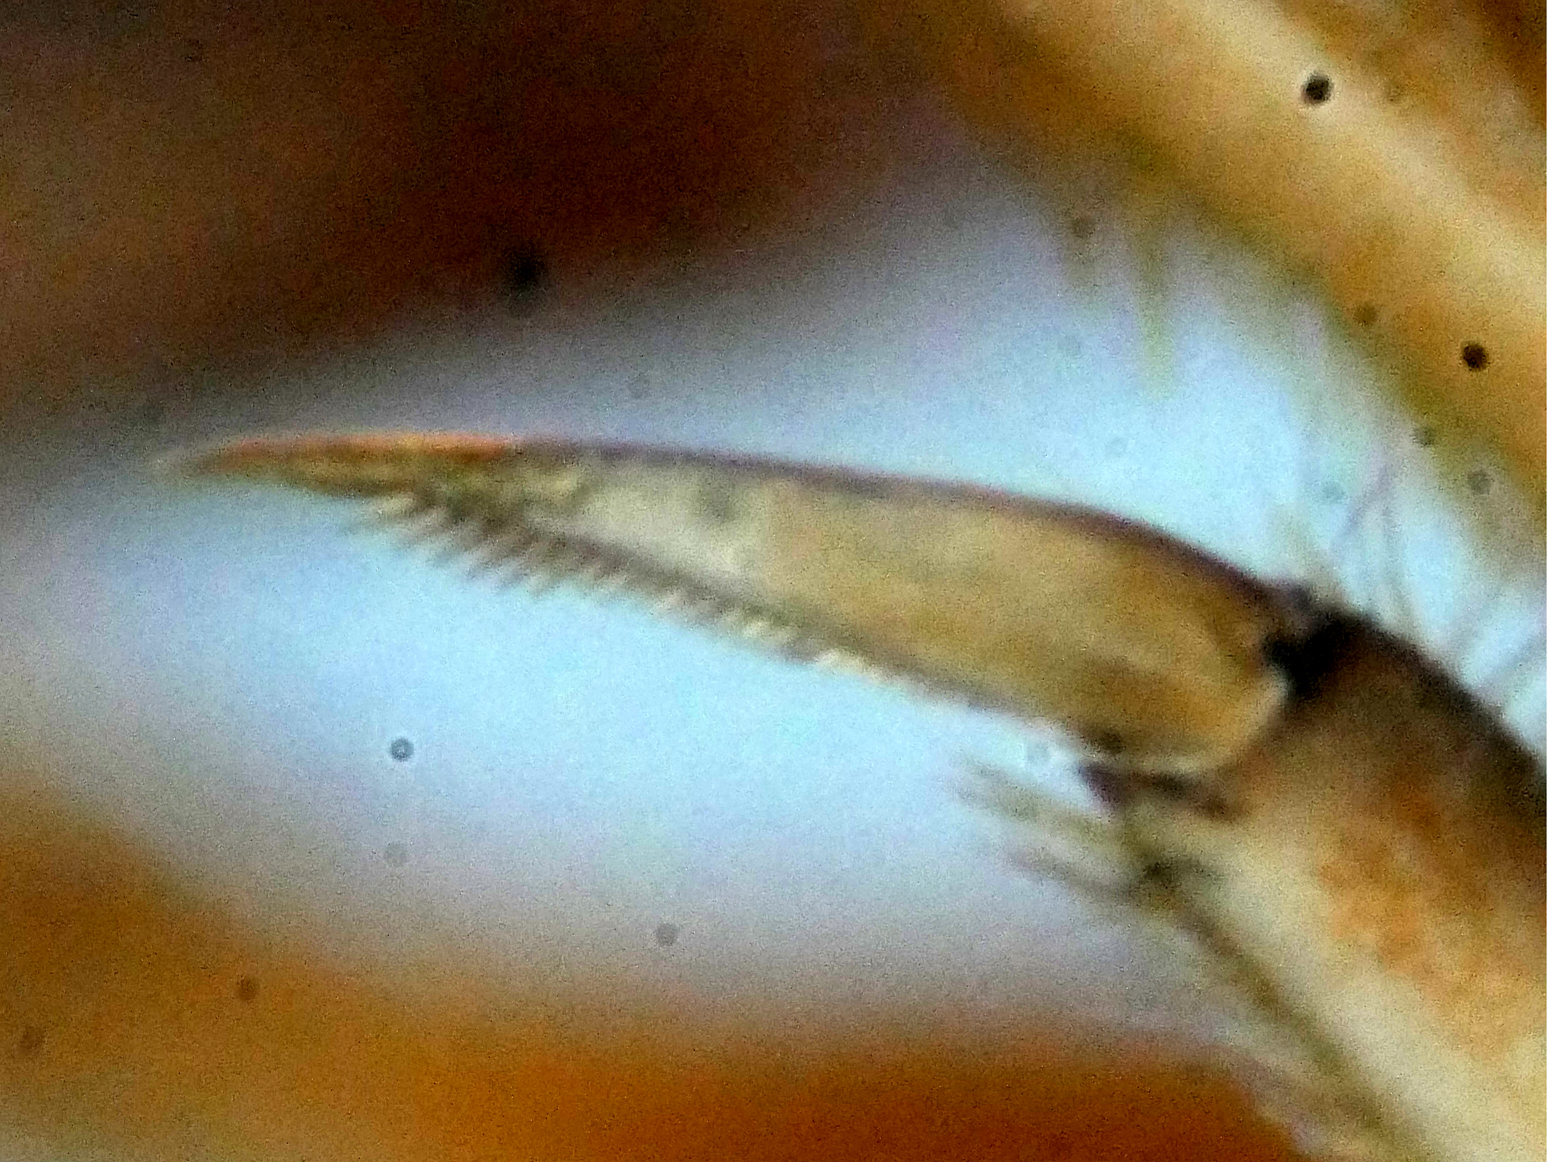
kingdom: Animalia
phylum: Arthropoda
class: Insecta
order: Ephemeroptera
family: Leptophlebiidae
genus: Leptophlebia
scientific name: Leptophlebia vespertina
